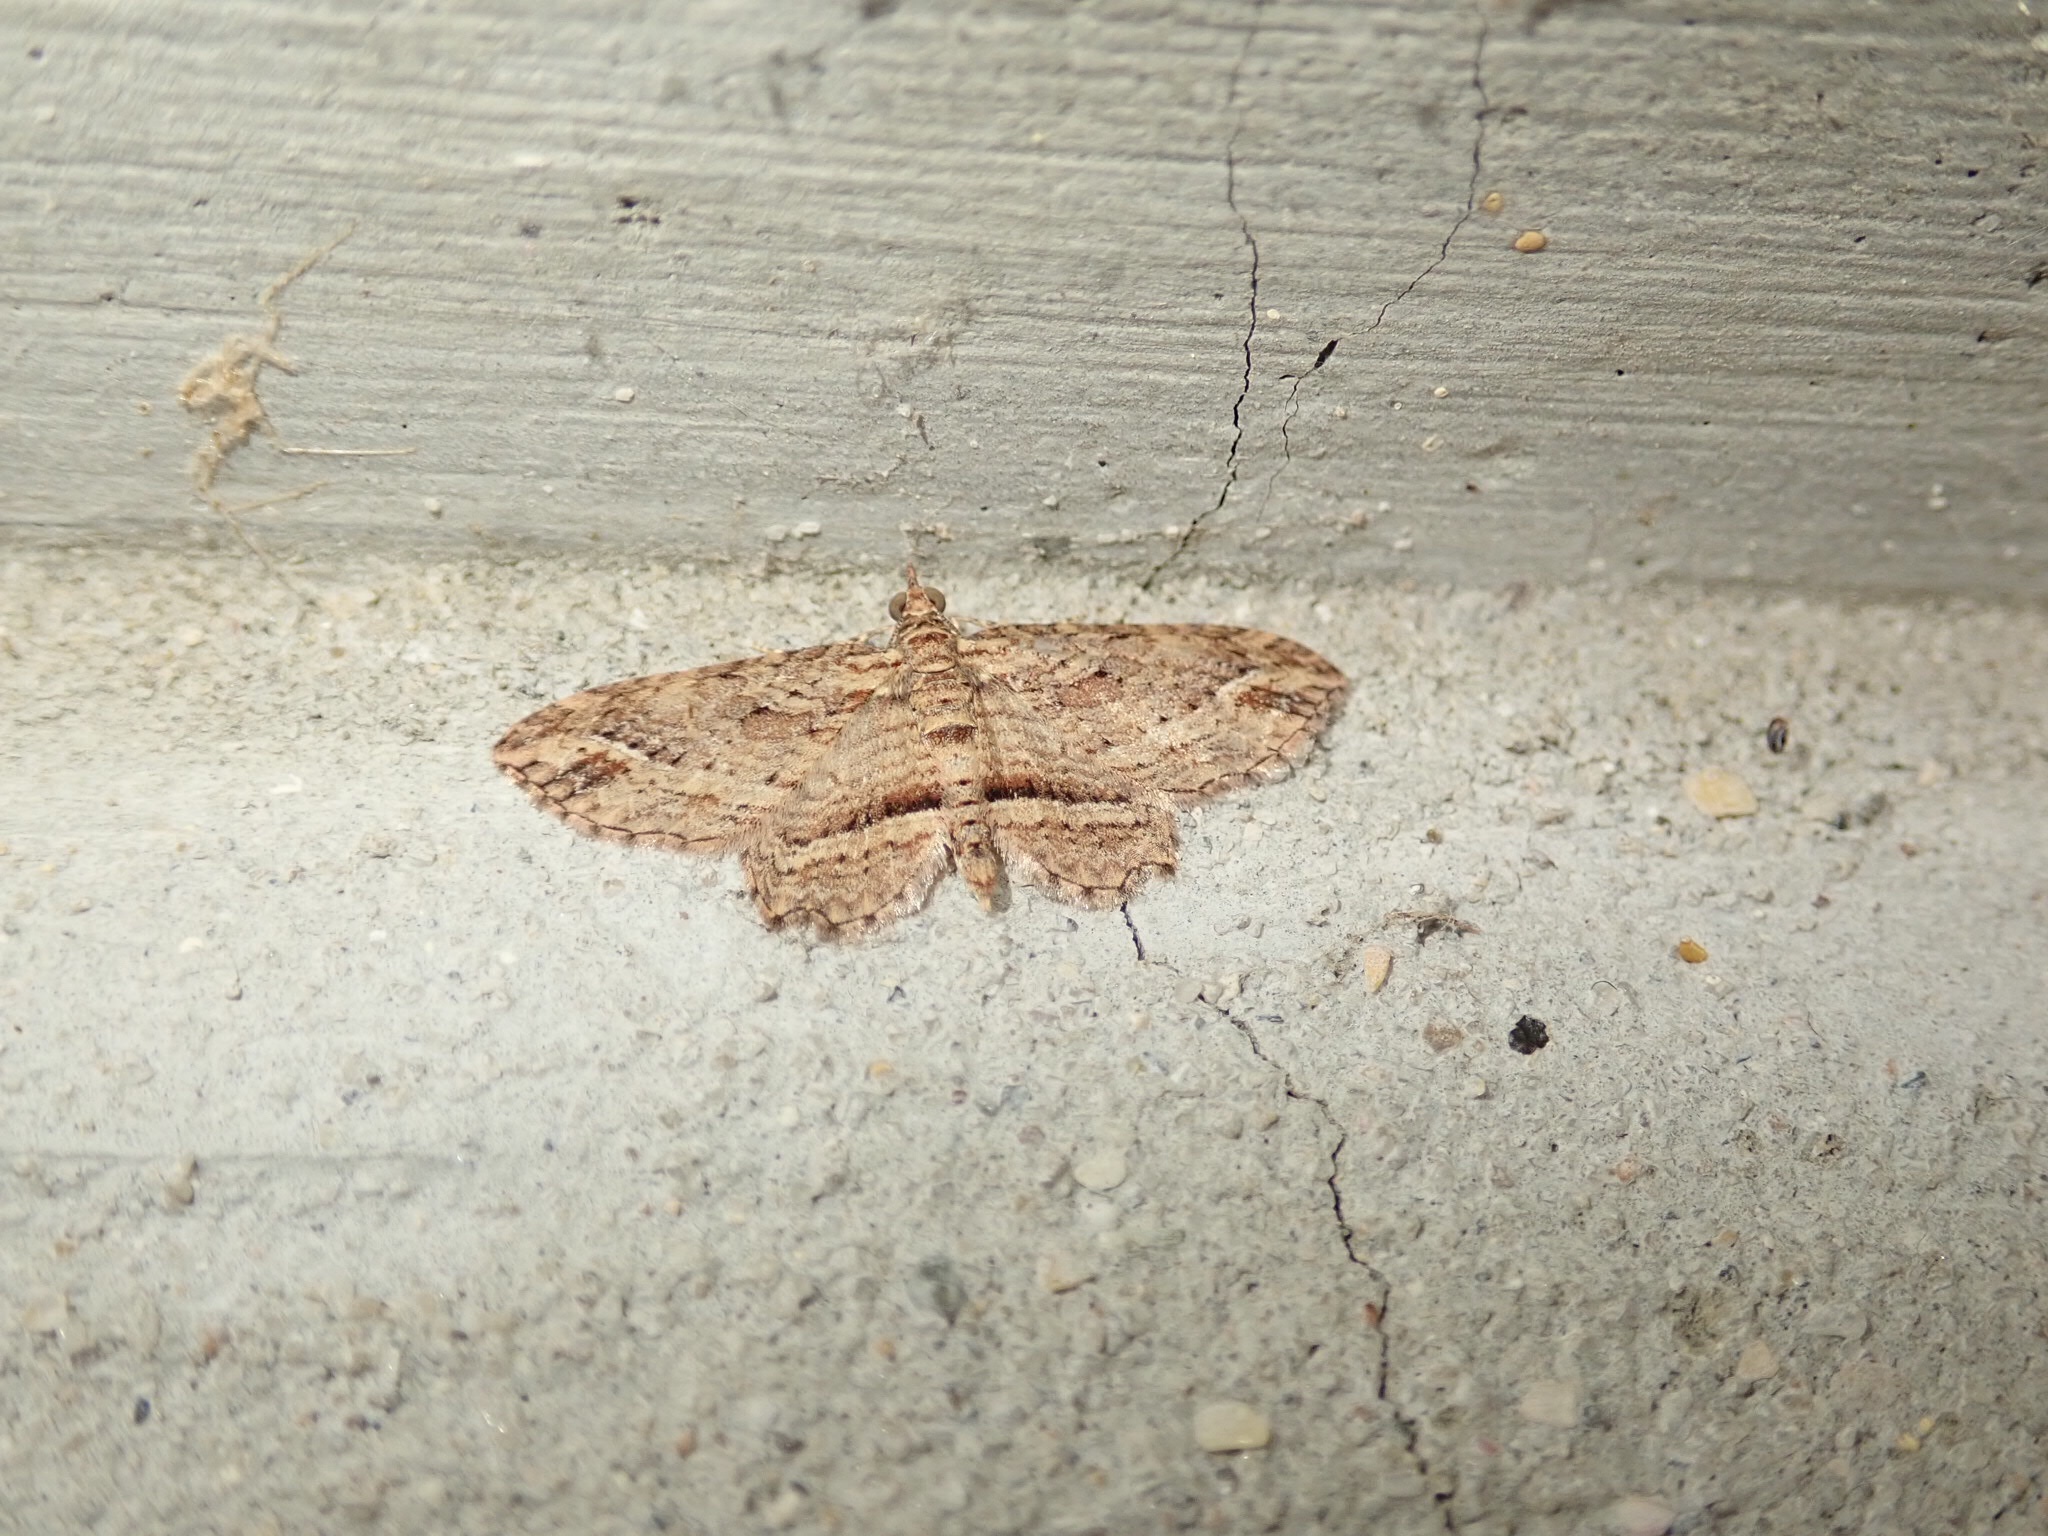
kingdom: Animalia
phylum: Arthropoda
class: Insecta
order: Lepidoptera
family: Geometridae
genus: Chloroclystis
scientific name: Chloroclystis filata
